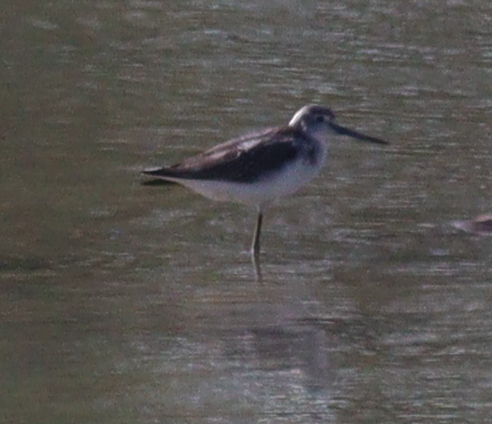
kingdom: Animalia
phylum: Chordata
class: Aves
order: Charadriiformes
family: Scolopacidae
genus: Tringa
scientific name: Tringa nebularia
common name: Common greenshank
